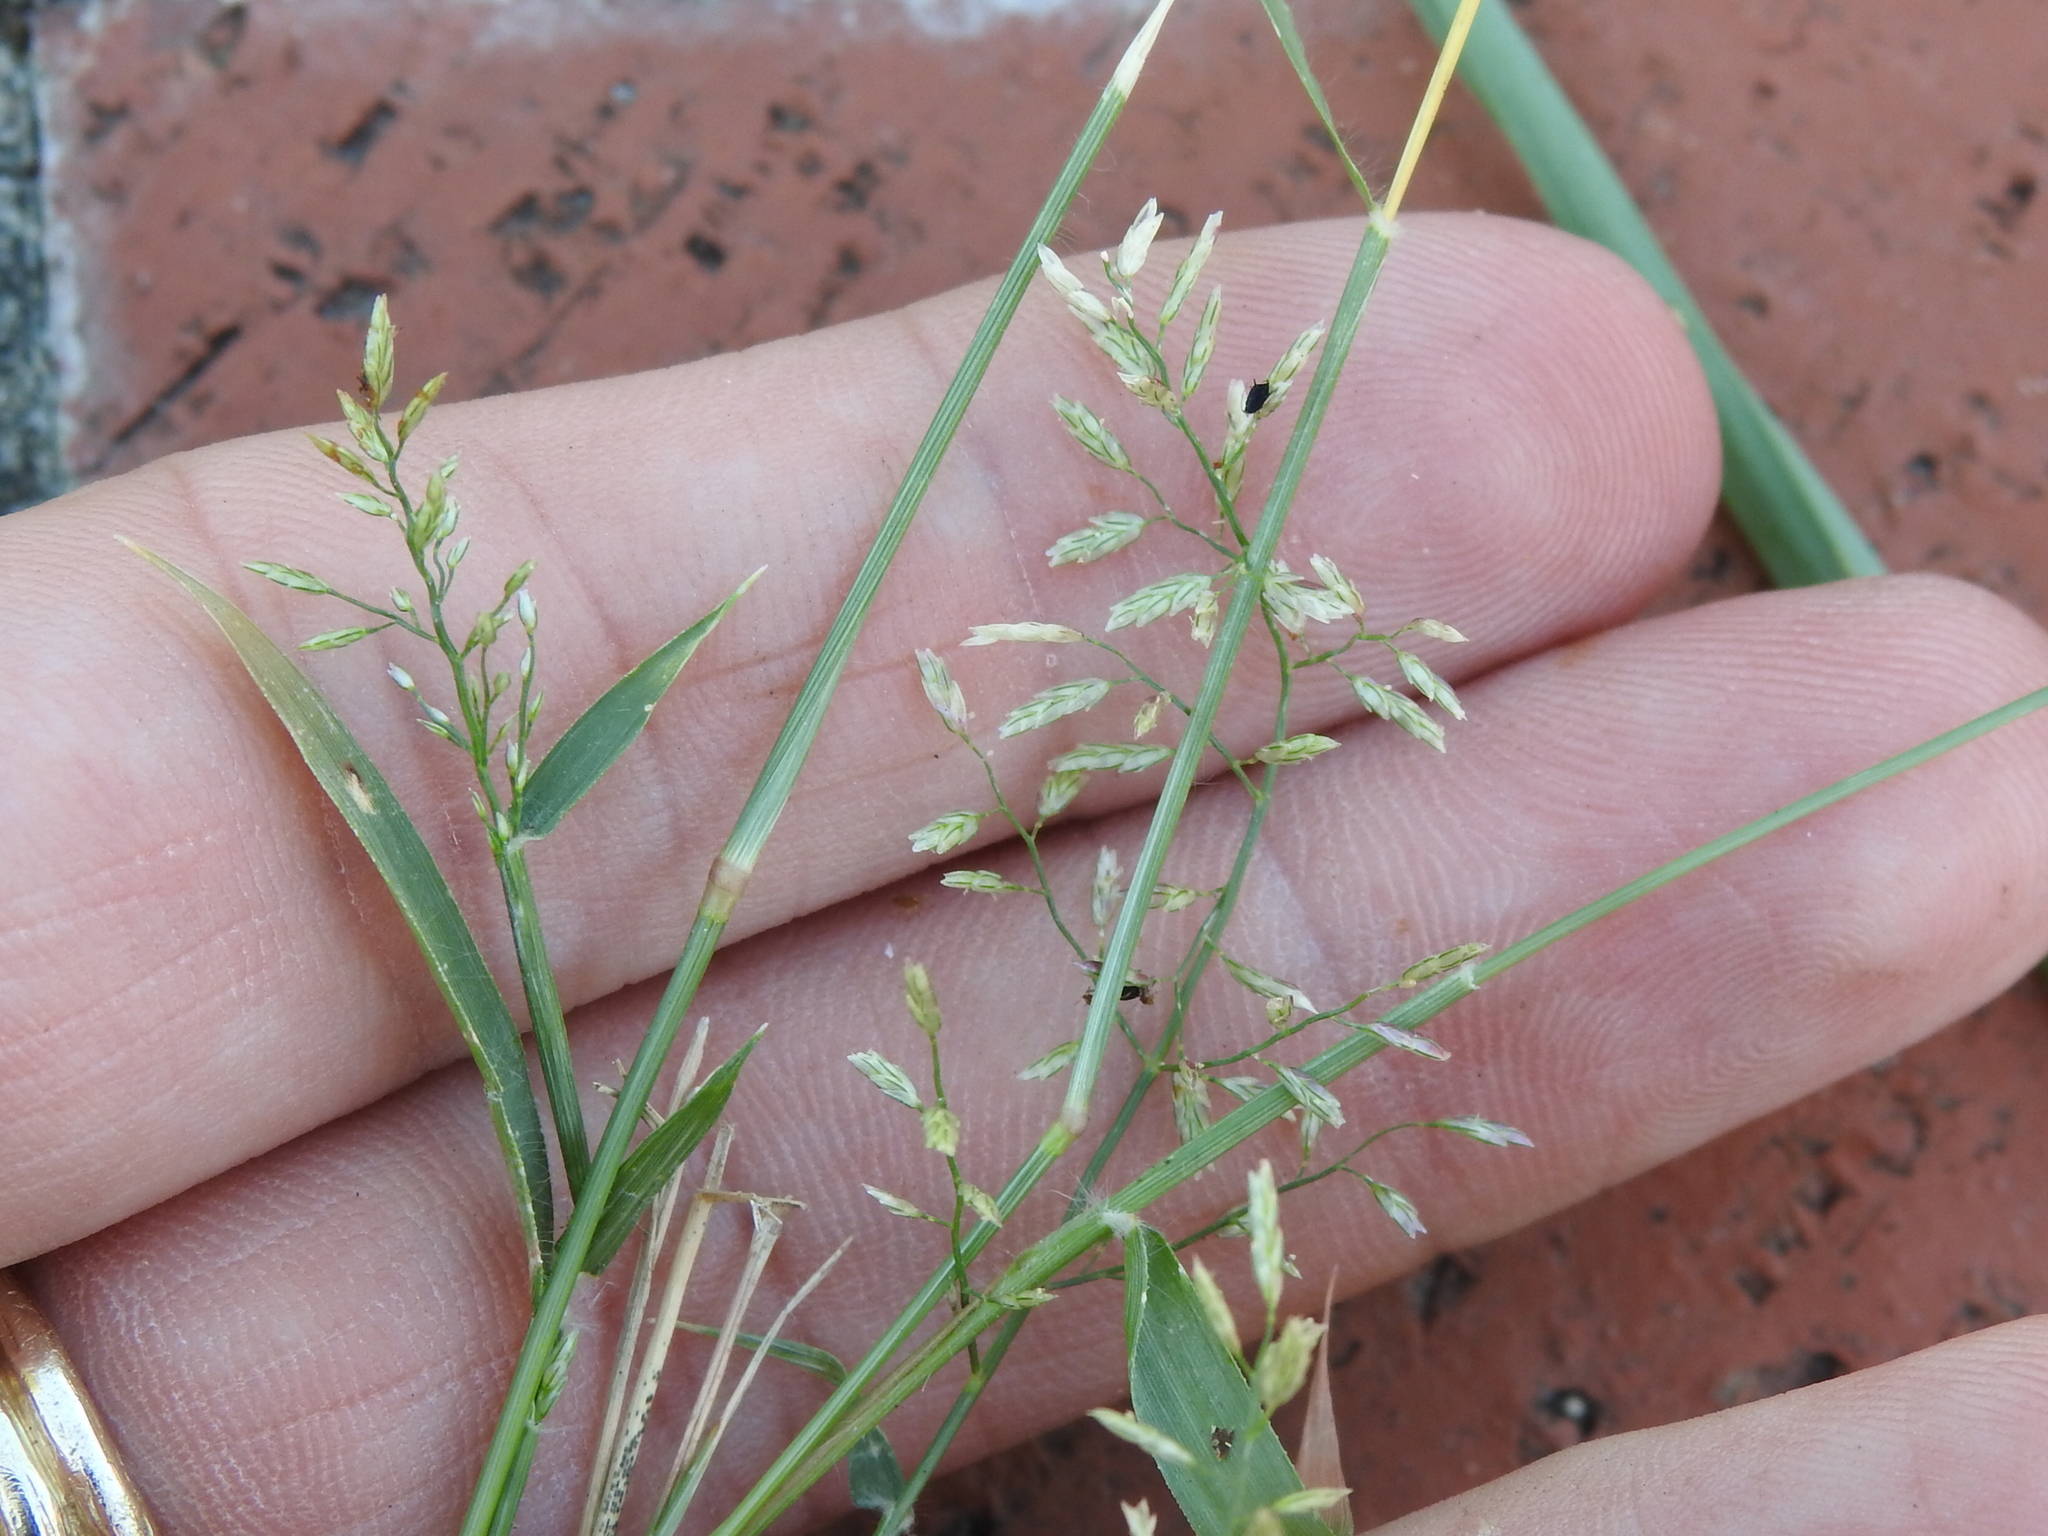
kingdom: Plantae
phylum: Tracheophyta
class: Liliopsida
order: Poales
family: Poaceae
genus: Eragrostis
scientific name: Eragrostis cilianensis
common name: Stinkgrass
